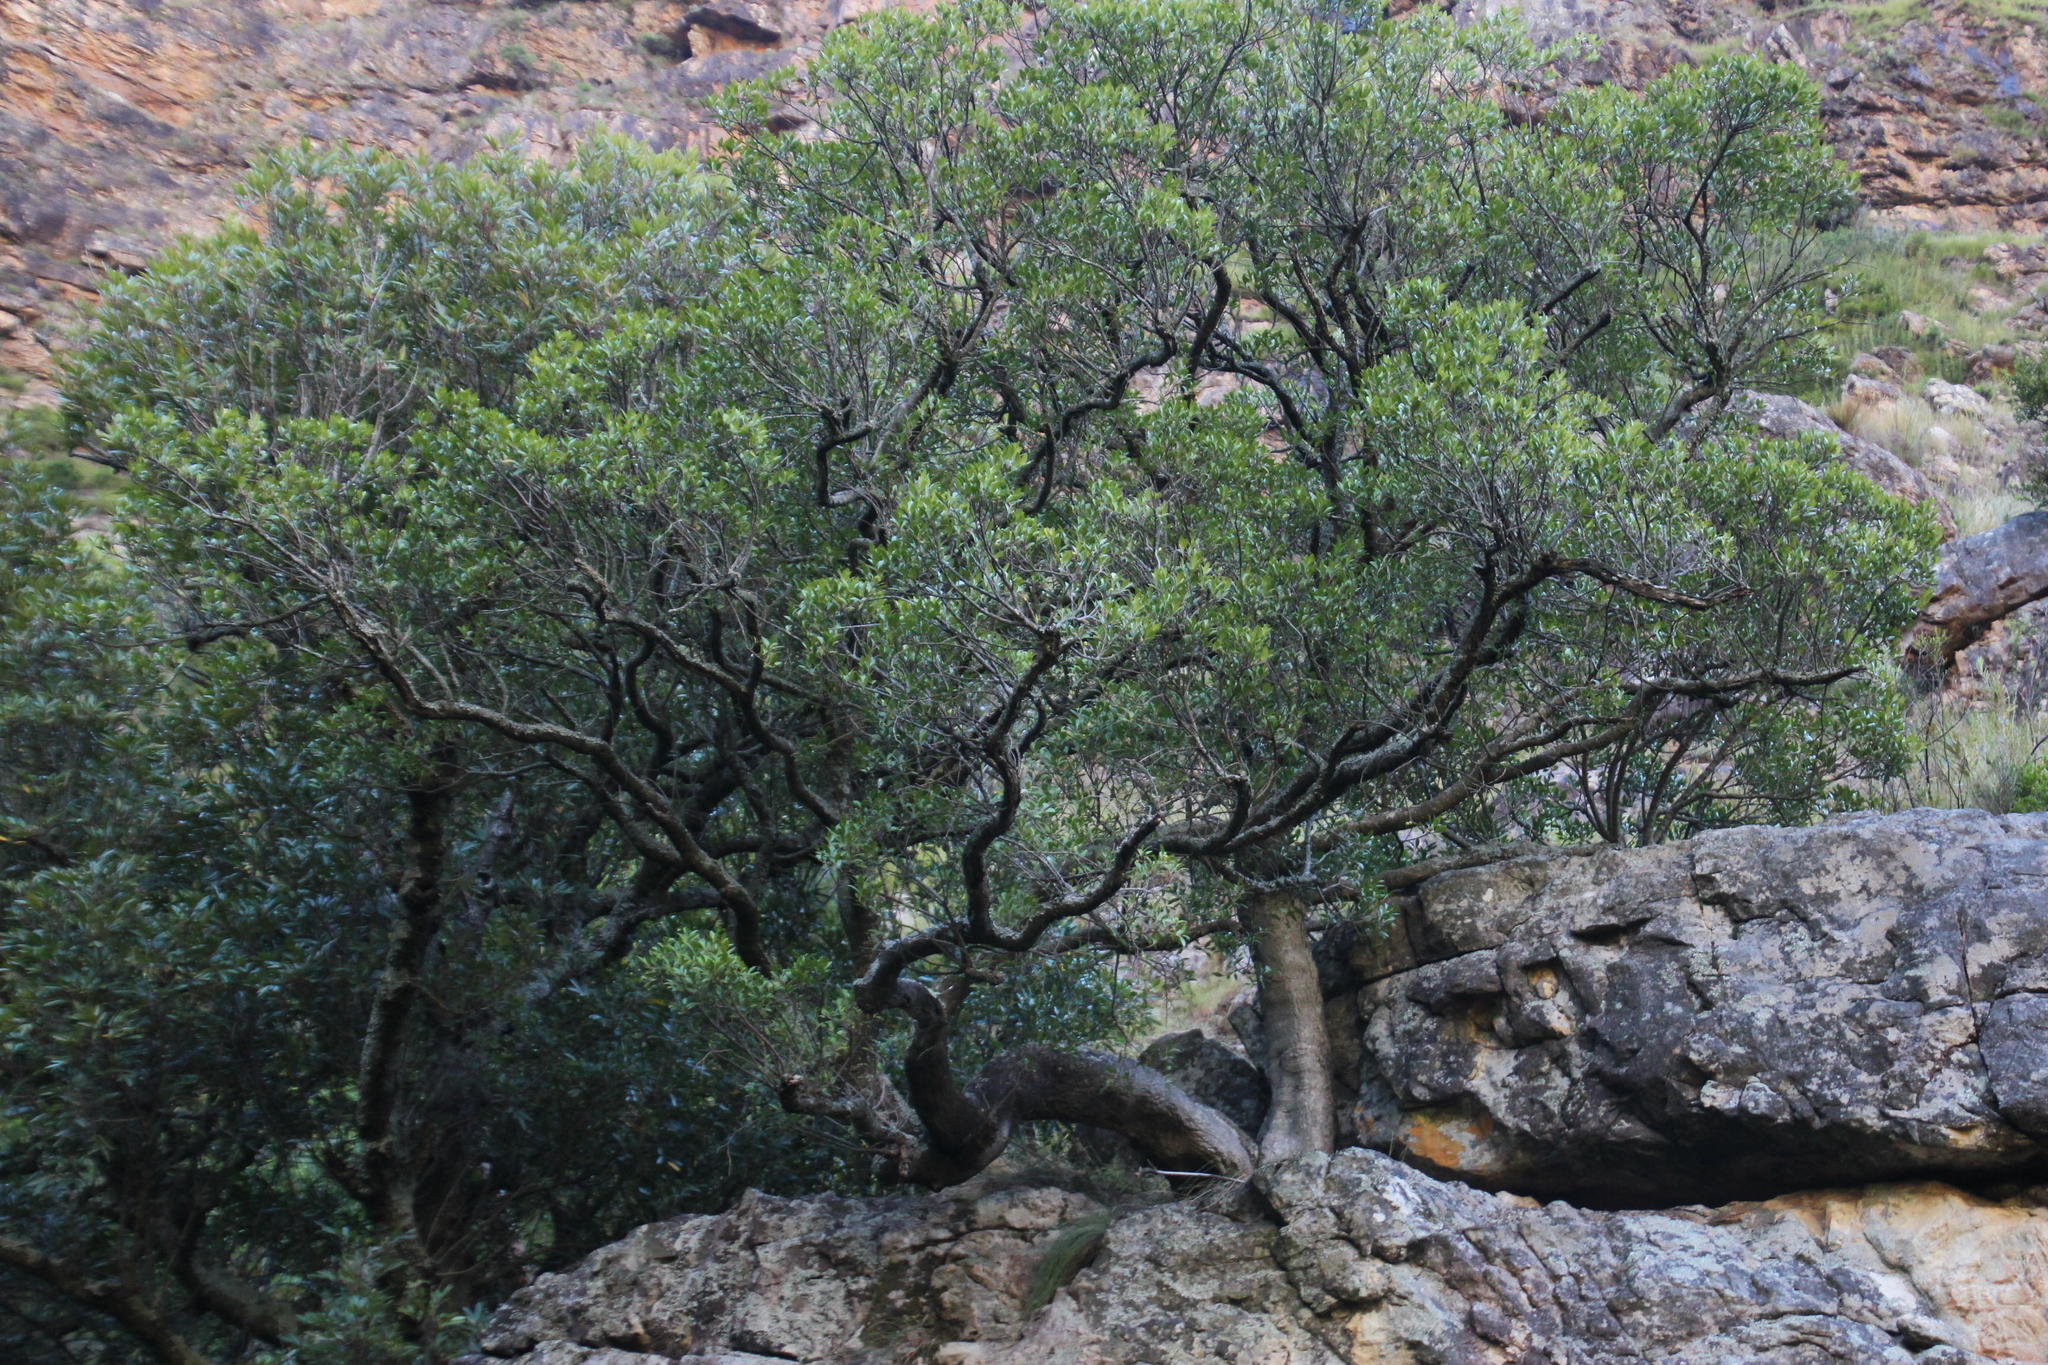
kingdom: Plantae
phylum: Tracheophyta
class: Magnoliopsida
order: Aquifoliales
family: Aquifoliaceae
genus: Ilex
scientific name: Ilex mitis
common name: African holly
